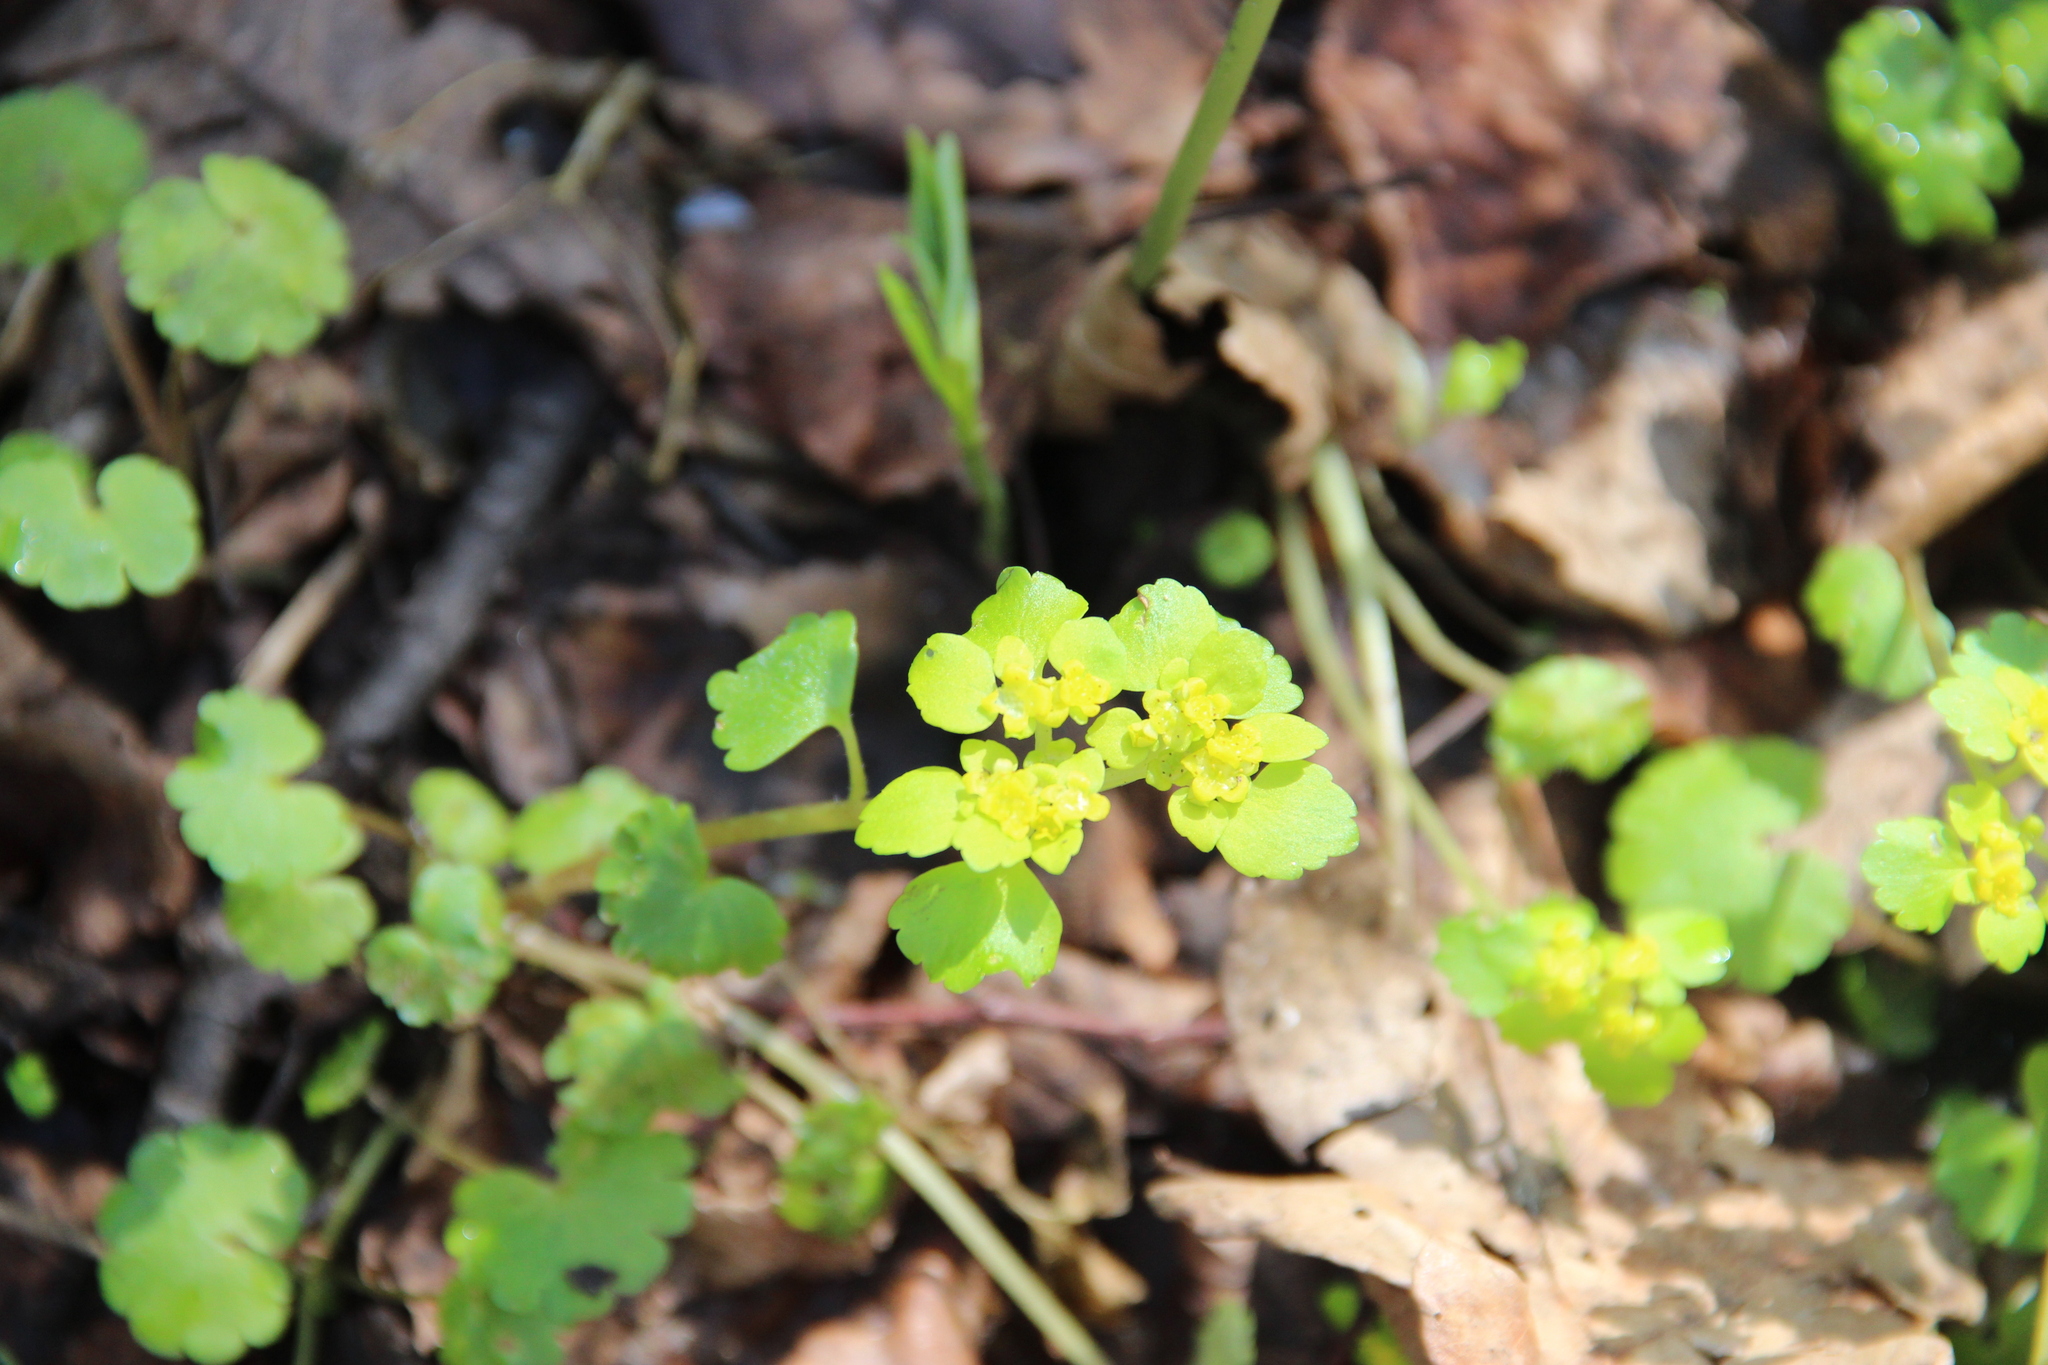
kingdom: Plantae
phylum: Tracheophyta
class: Magnoliopsida
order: Saxifragales
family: Saxifragaceae
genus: Chrysosplenium
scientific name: Chrysosplenium alternifolium
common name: Alternate-leaved golden-saxifrage
